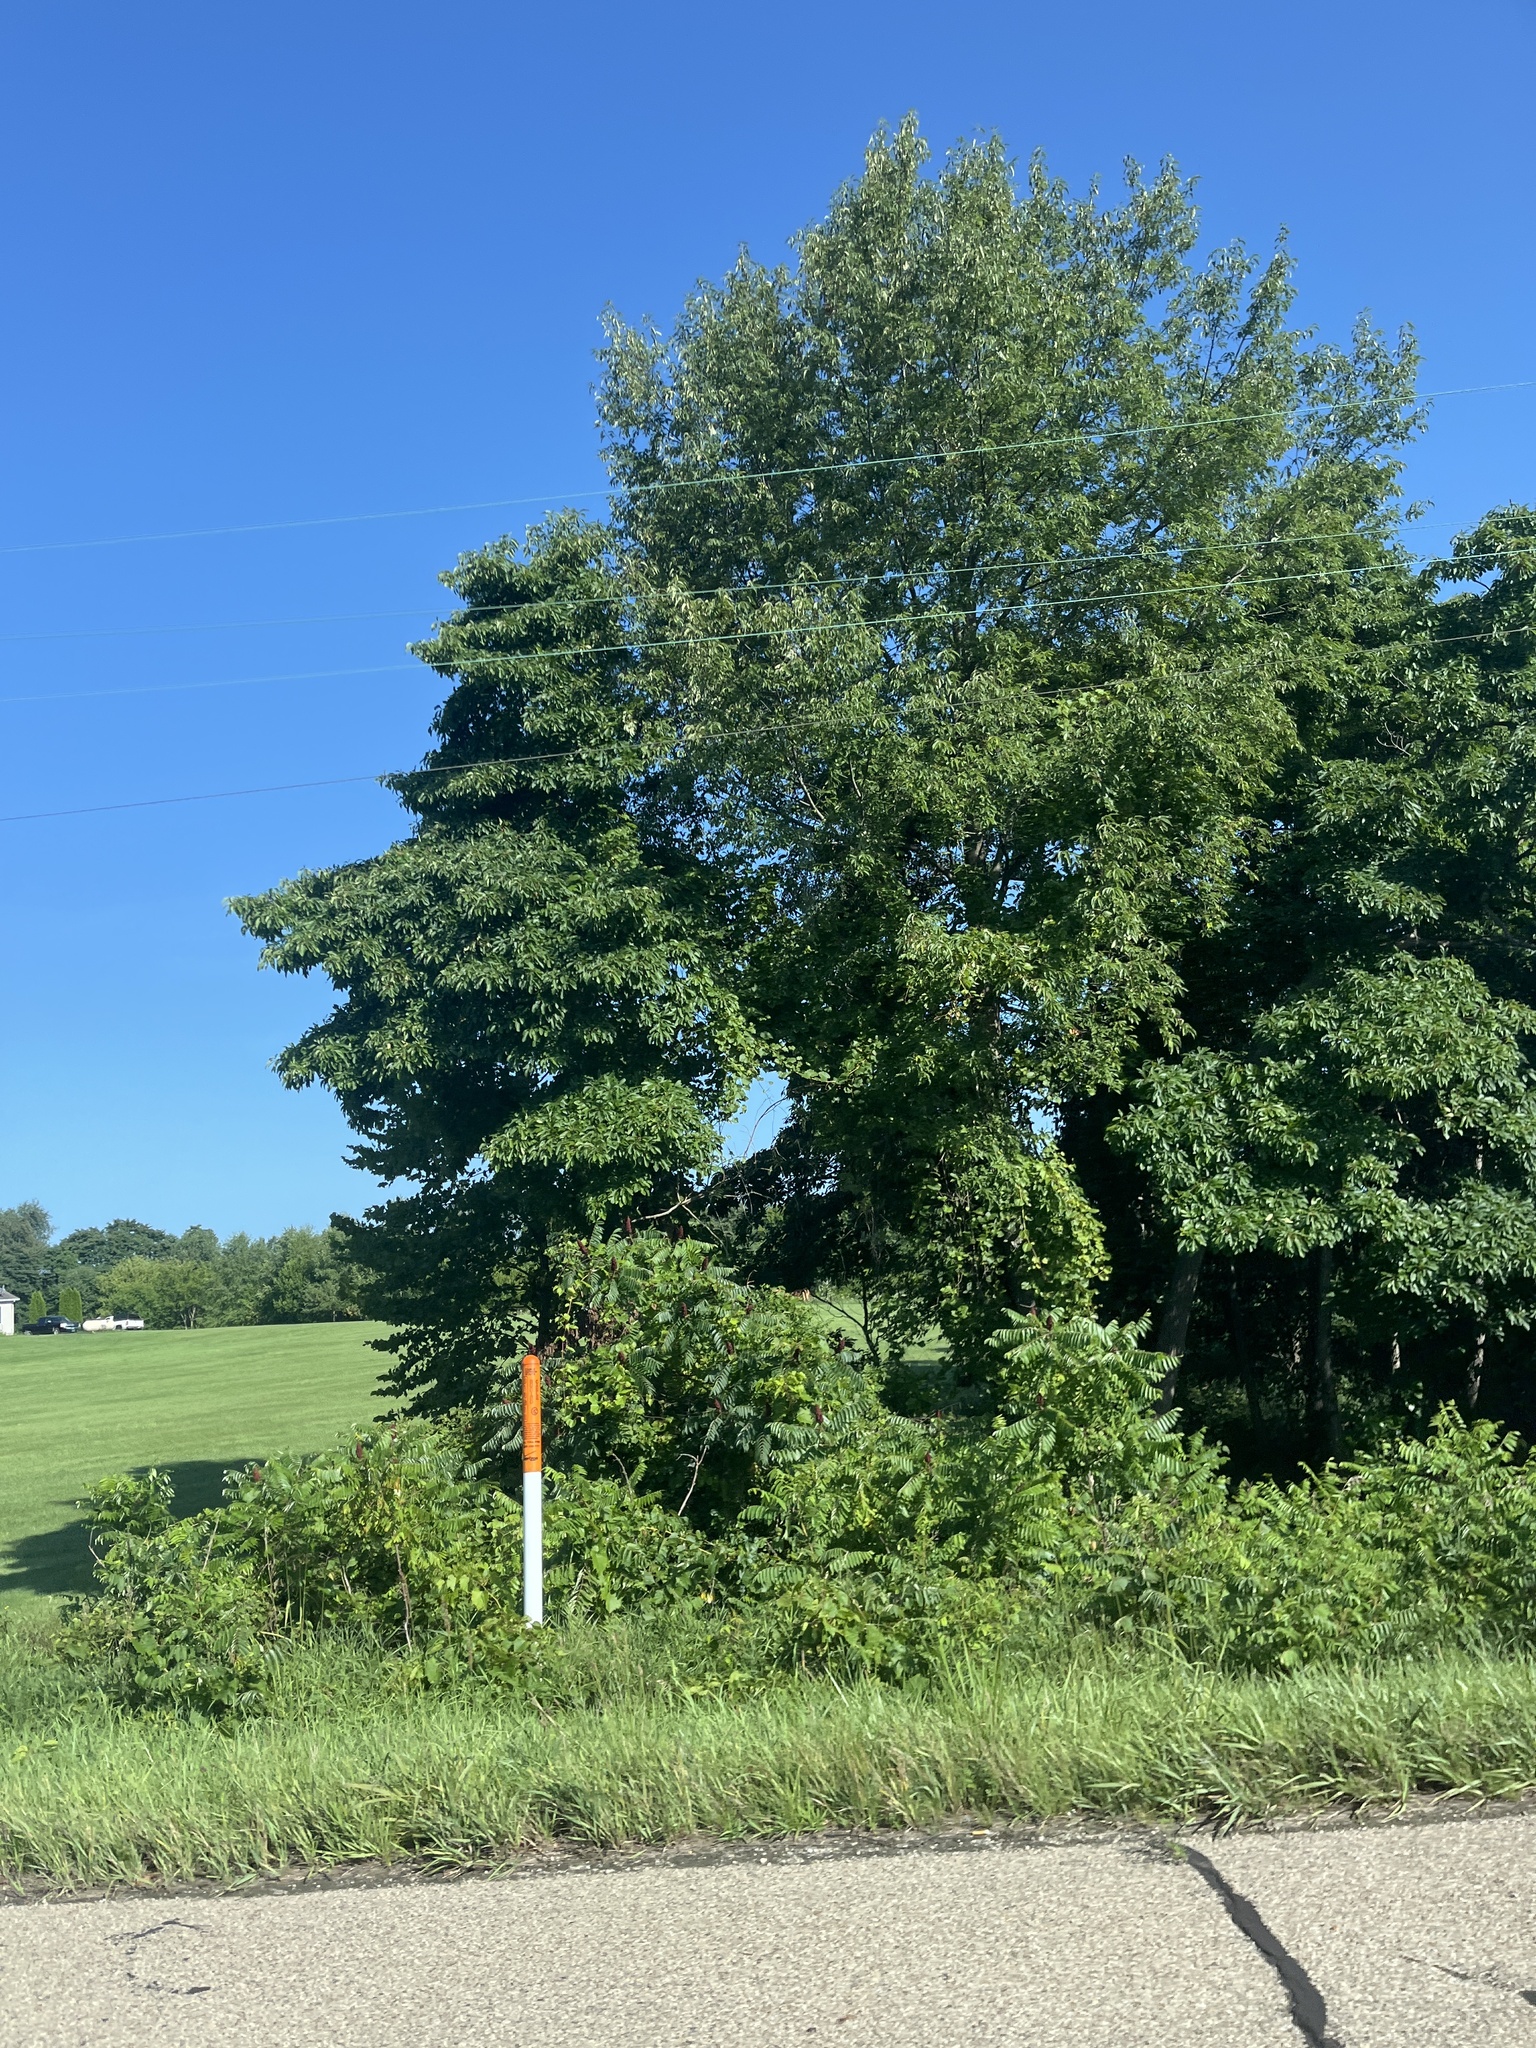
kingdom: Plantae
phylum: Tracheophyta
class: Magnoliopsida
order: Fabales
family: Fabaceae
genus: Robinia
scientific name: Robinia pseudoacacia
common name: Black locust
